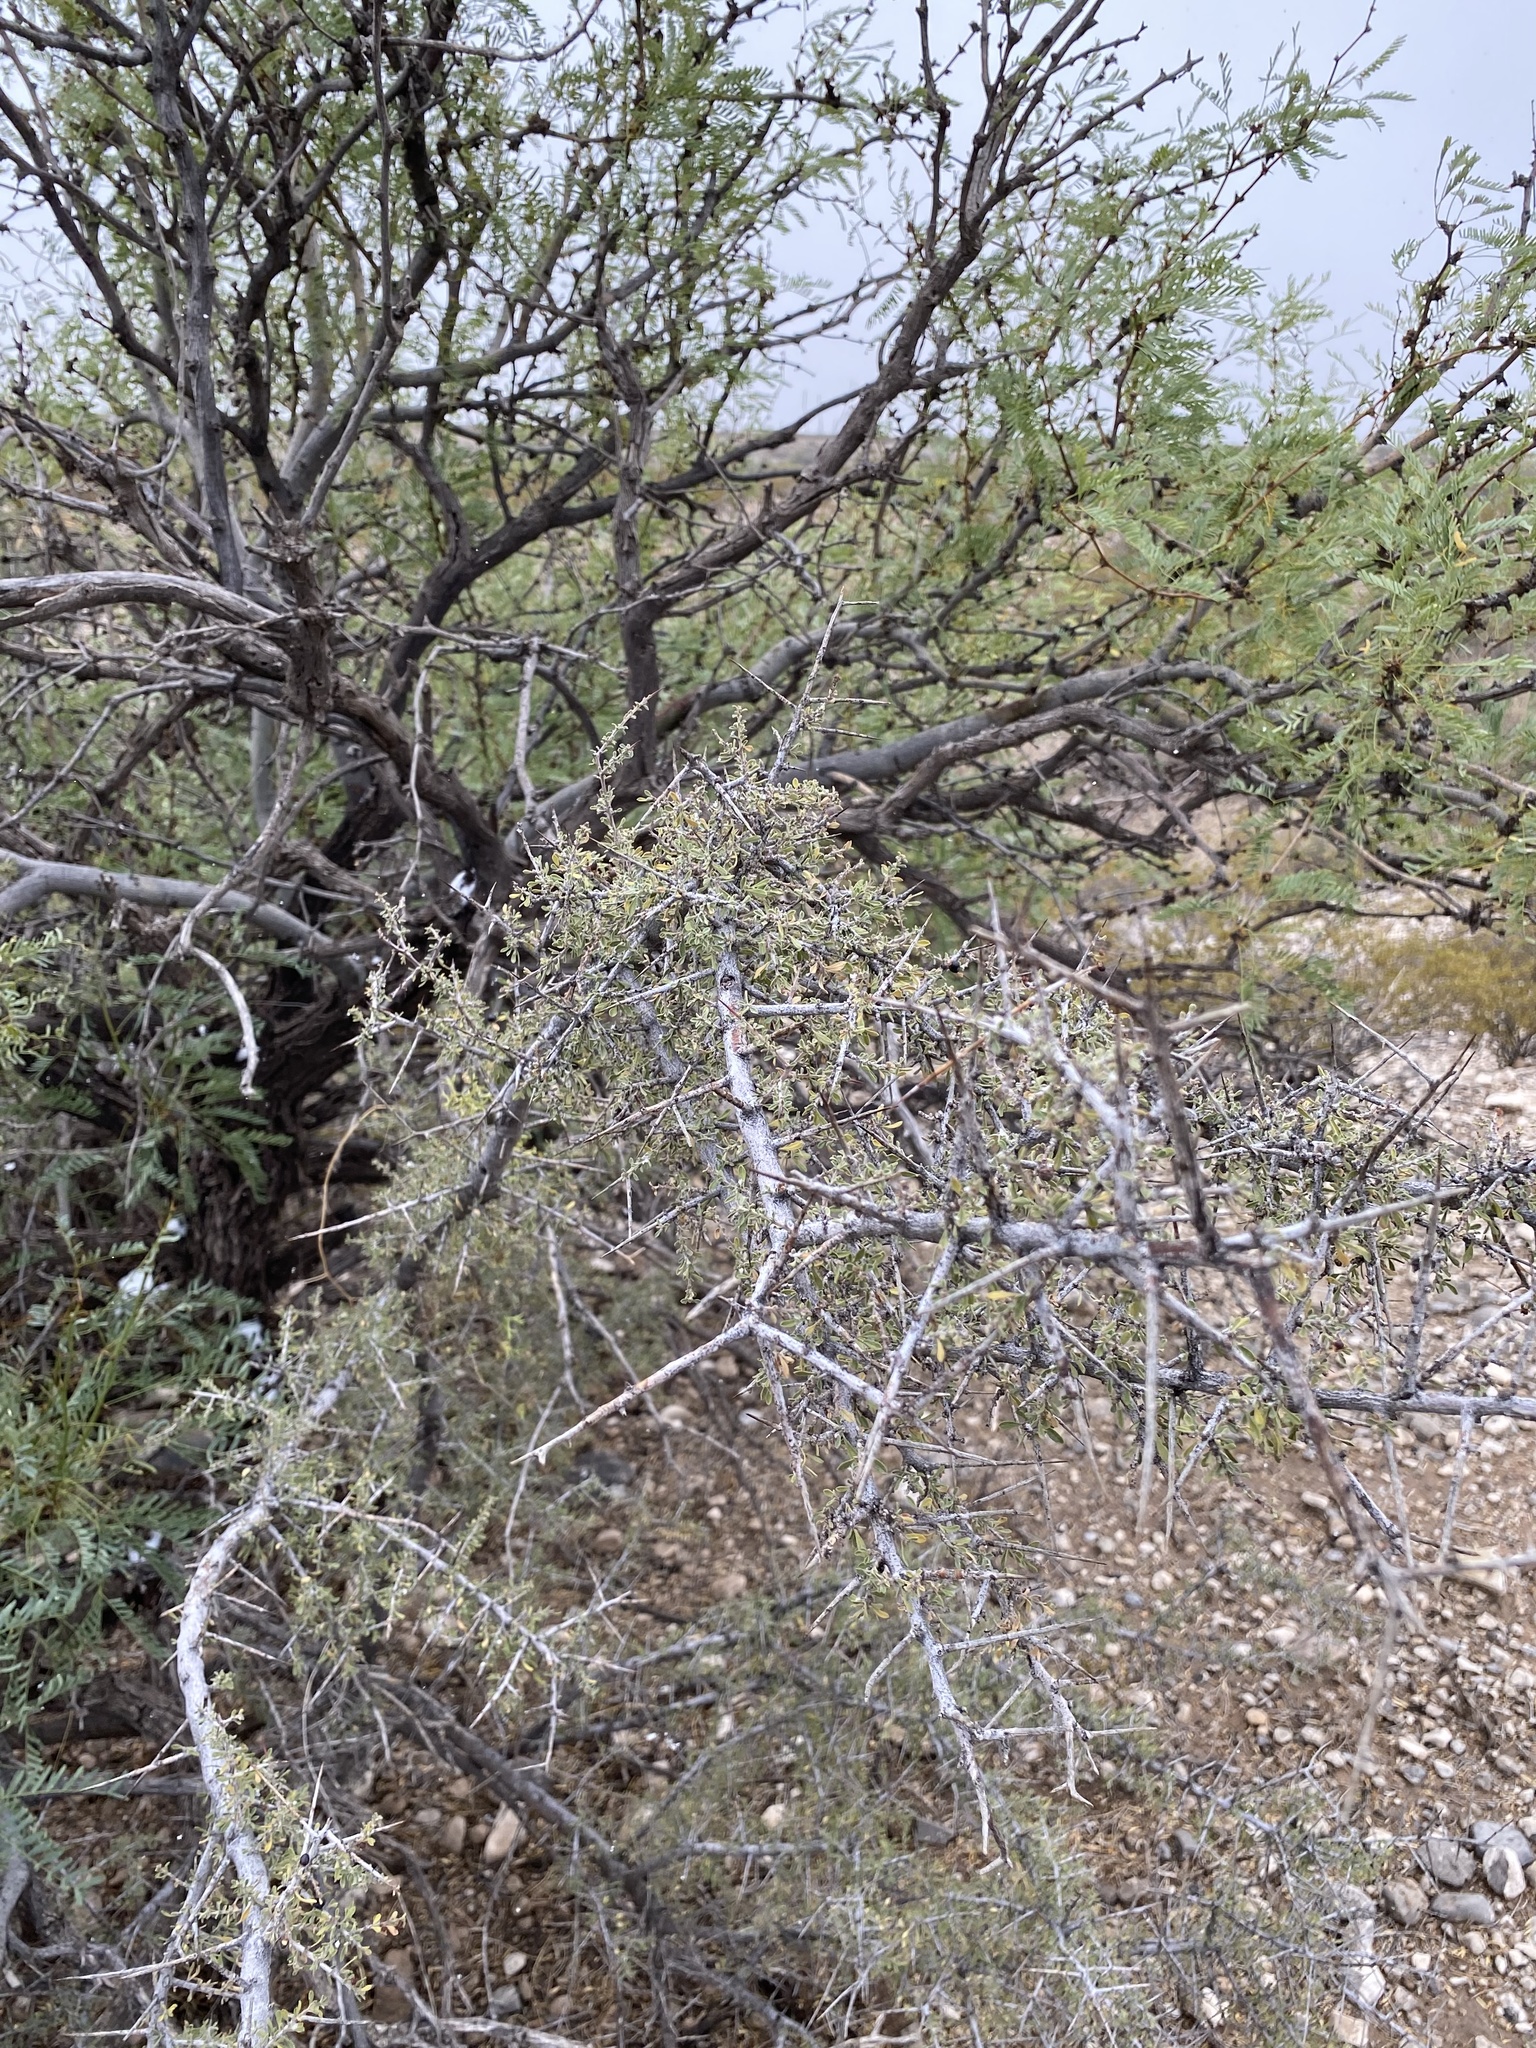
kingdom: Plantae
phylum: Tracheophyta
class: Magnoliopsida
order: Rosales
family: Rhamnaceae
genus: Condalia
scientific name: Condalia warnockii
